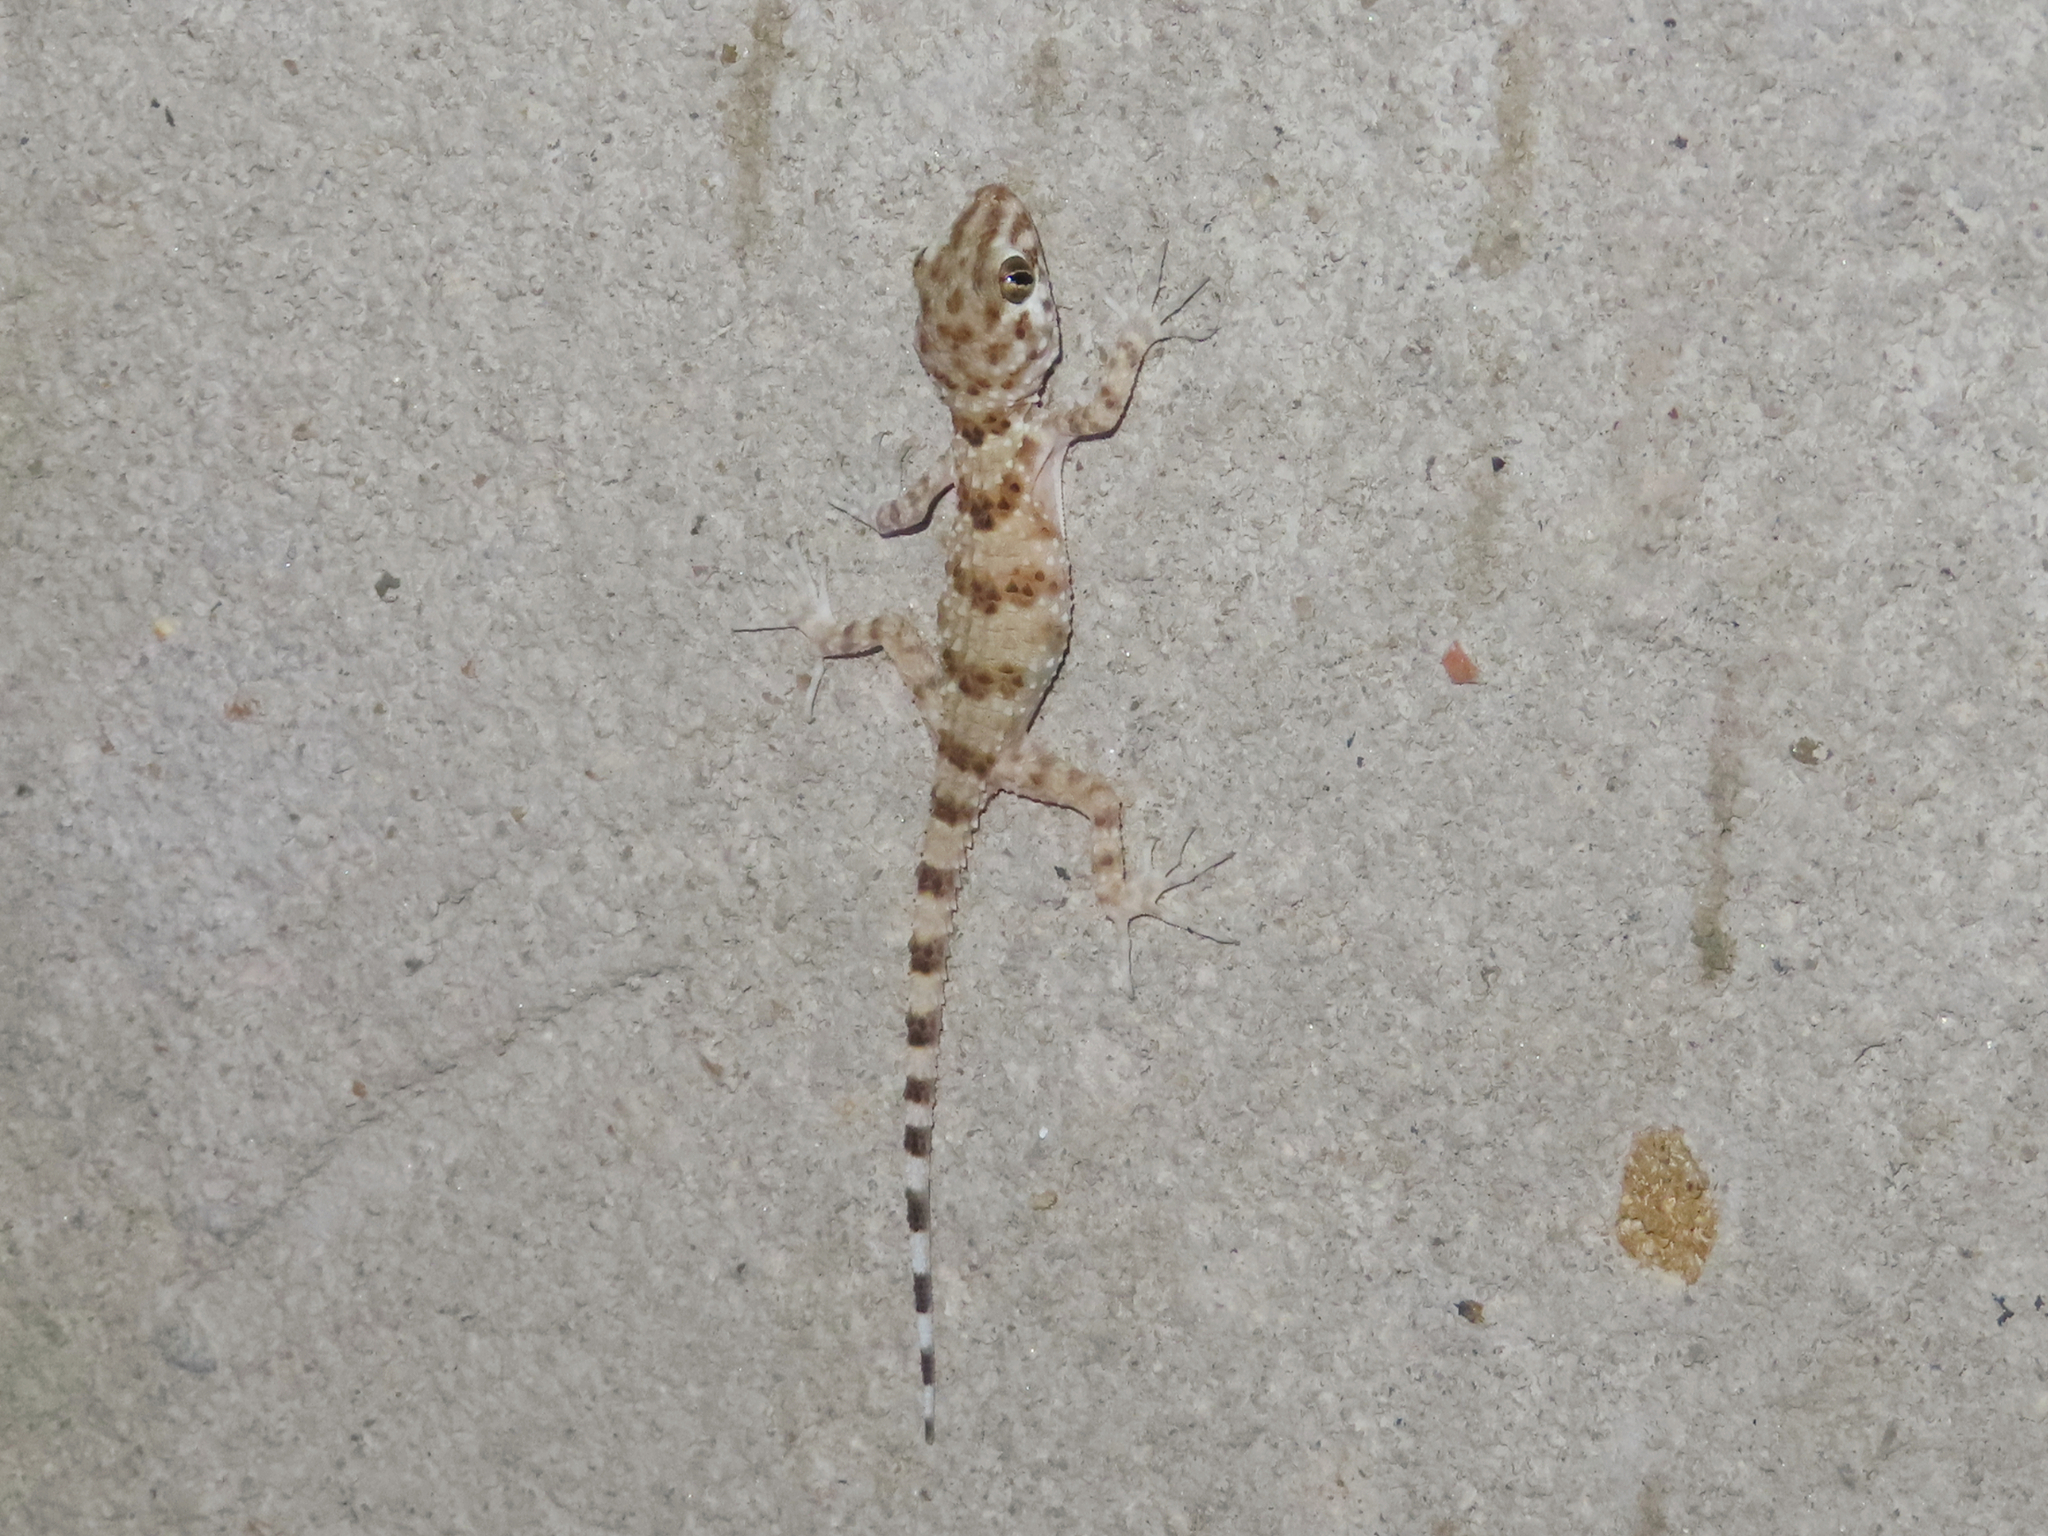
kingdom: Animalia
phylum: Chordata
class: Squamata
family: Gekkonidae
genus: Tenuidactylus
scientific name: Tenuidactylus caspius
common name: Caspian bent-toed gecko
